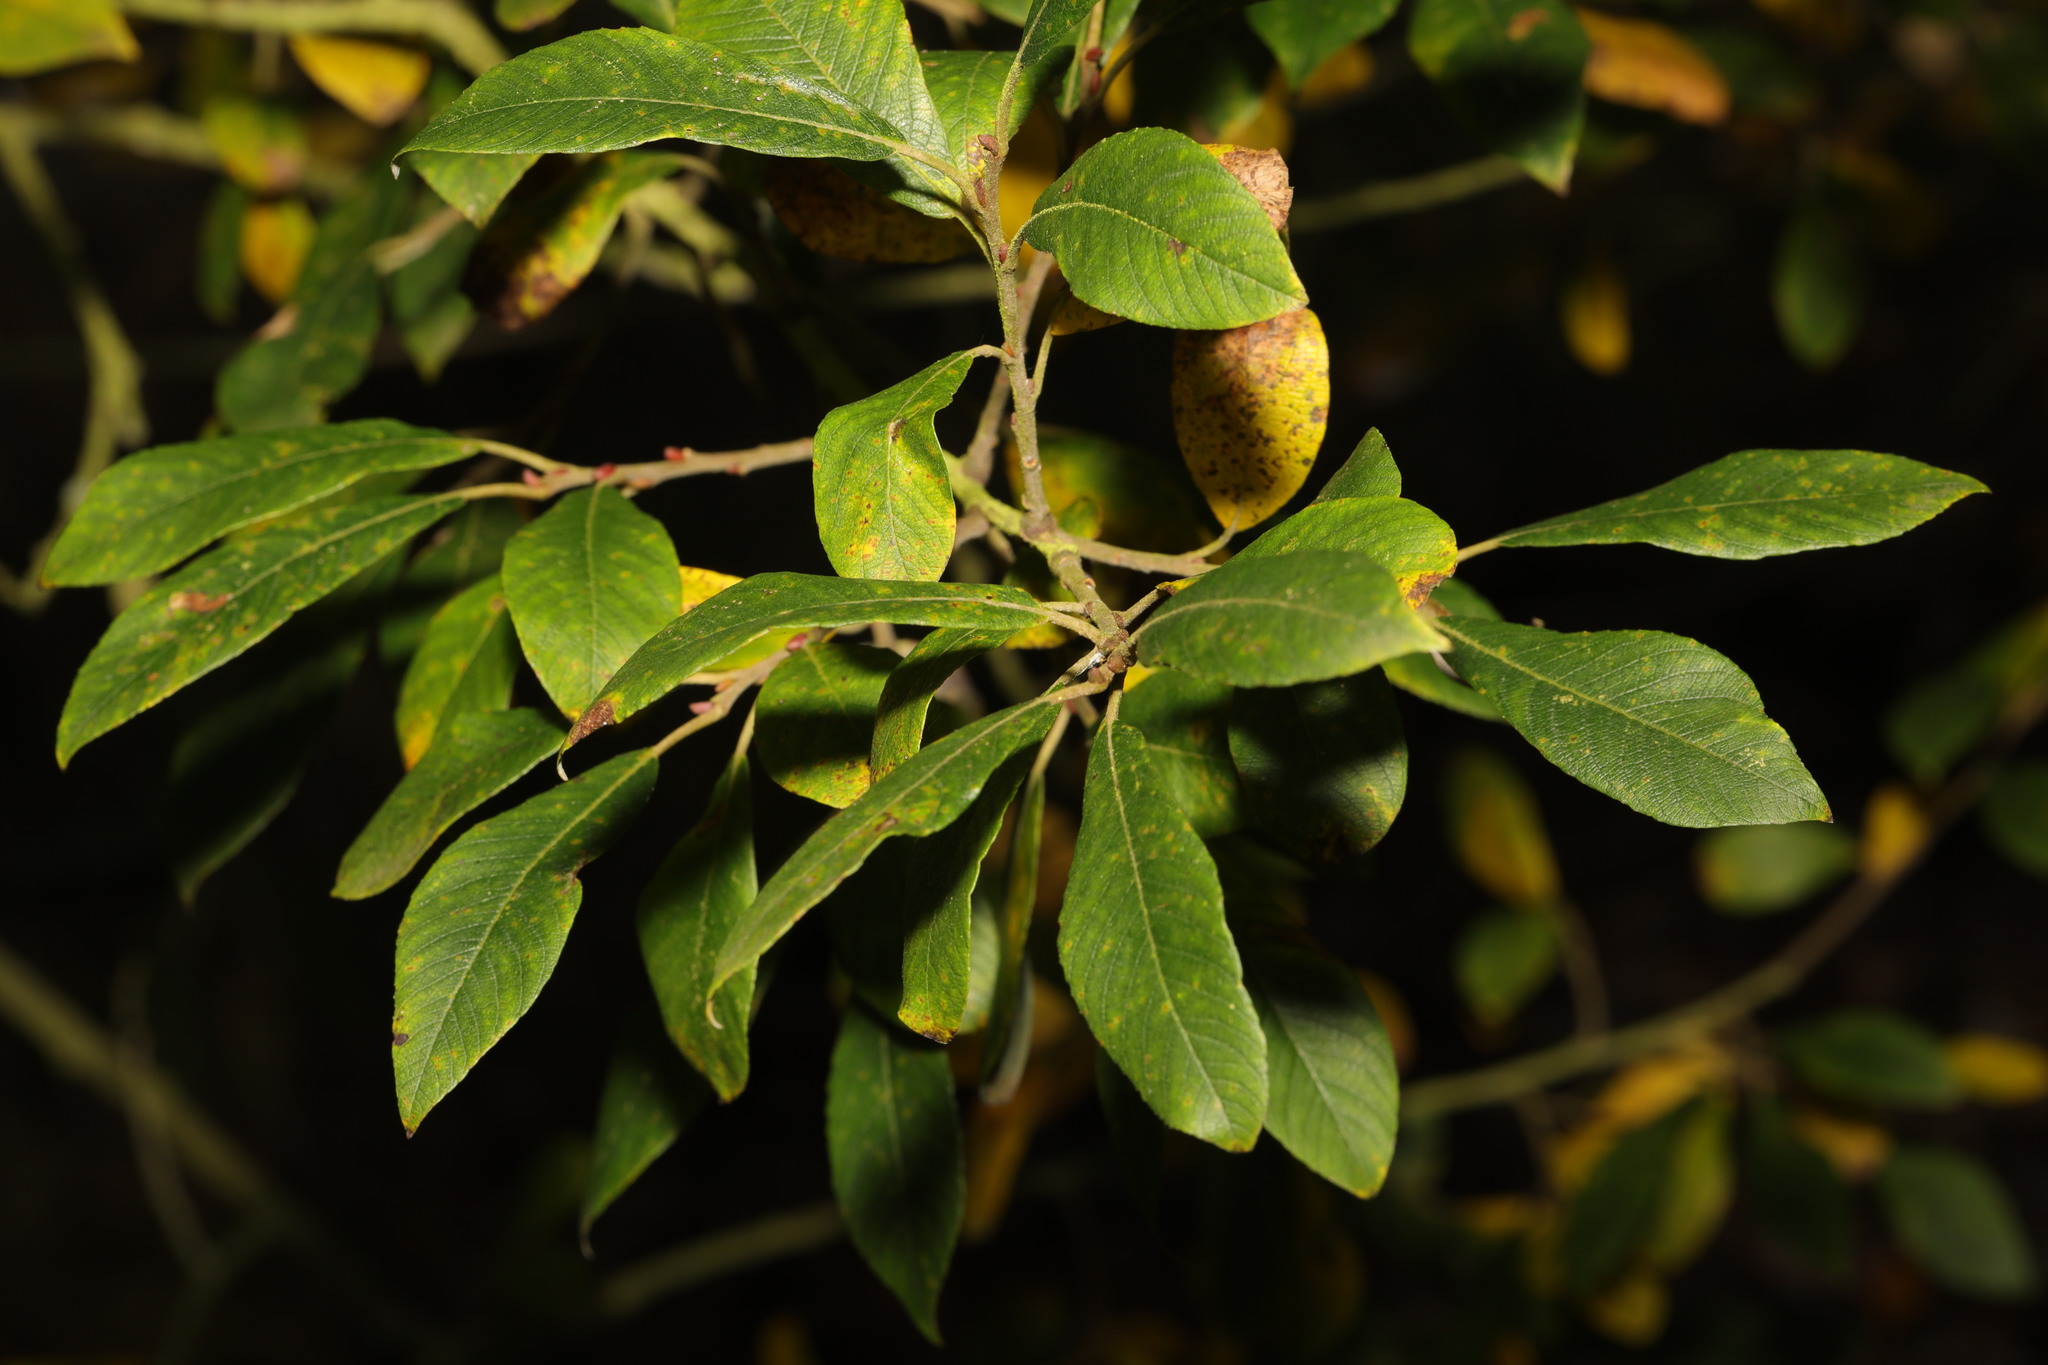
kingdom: Plantae
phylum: Tracheophyta
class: Magnoliopsida
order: Malpighiales
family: Salicaceae
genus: Salix
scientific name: Salix cinerea
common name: Common sallow
